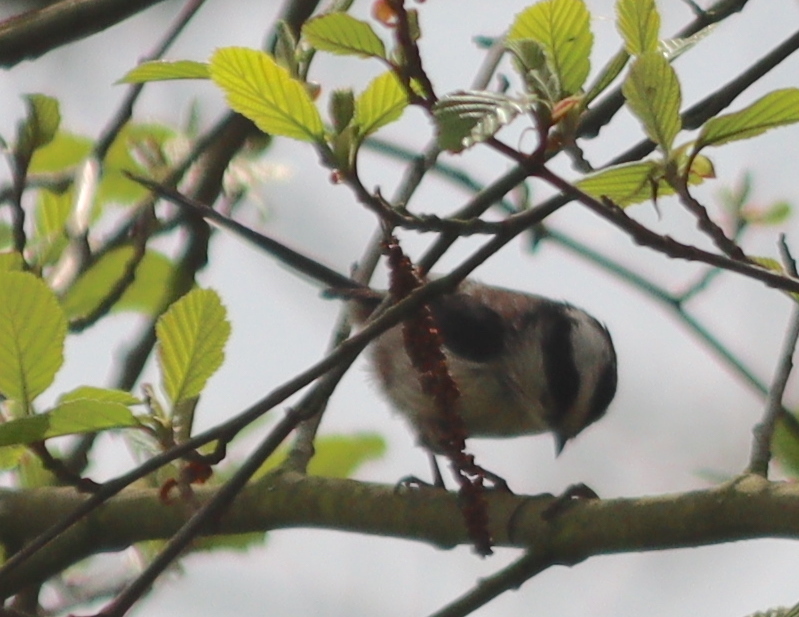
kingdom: Animalia
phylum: Chordata
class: Aves
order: Passeriformes
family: Aegithalidae
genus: Aegithalos
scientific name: Aegithalos caudatus
